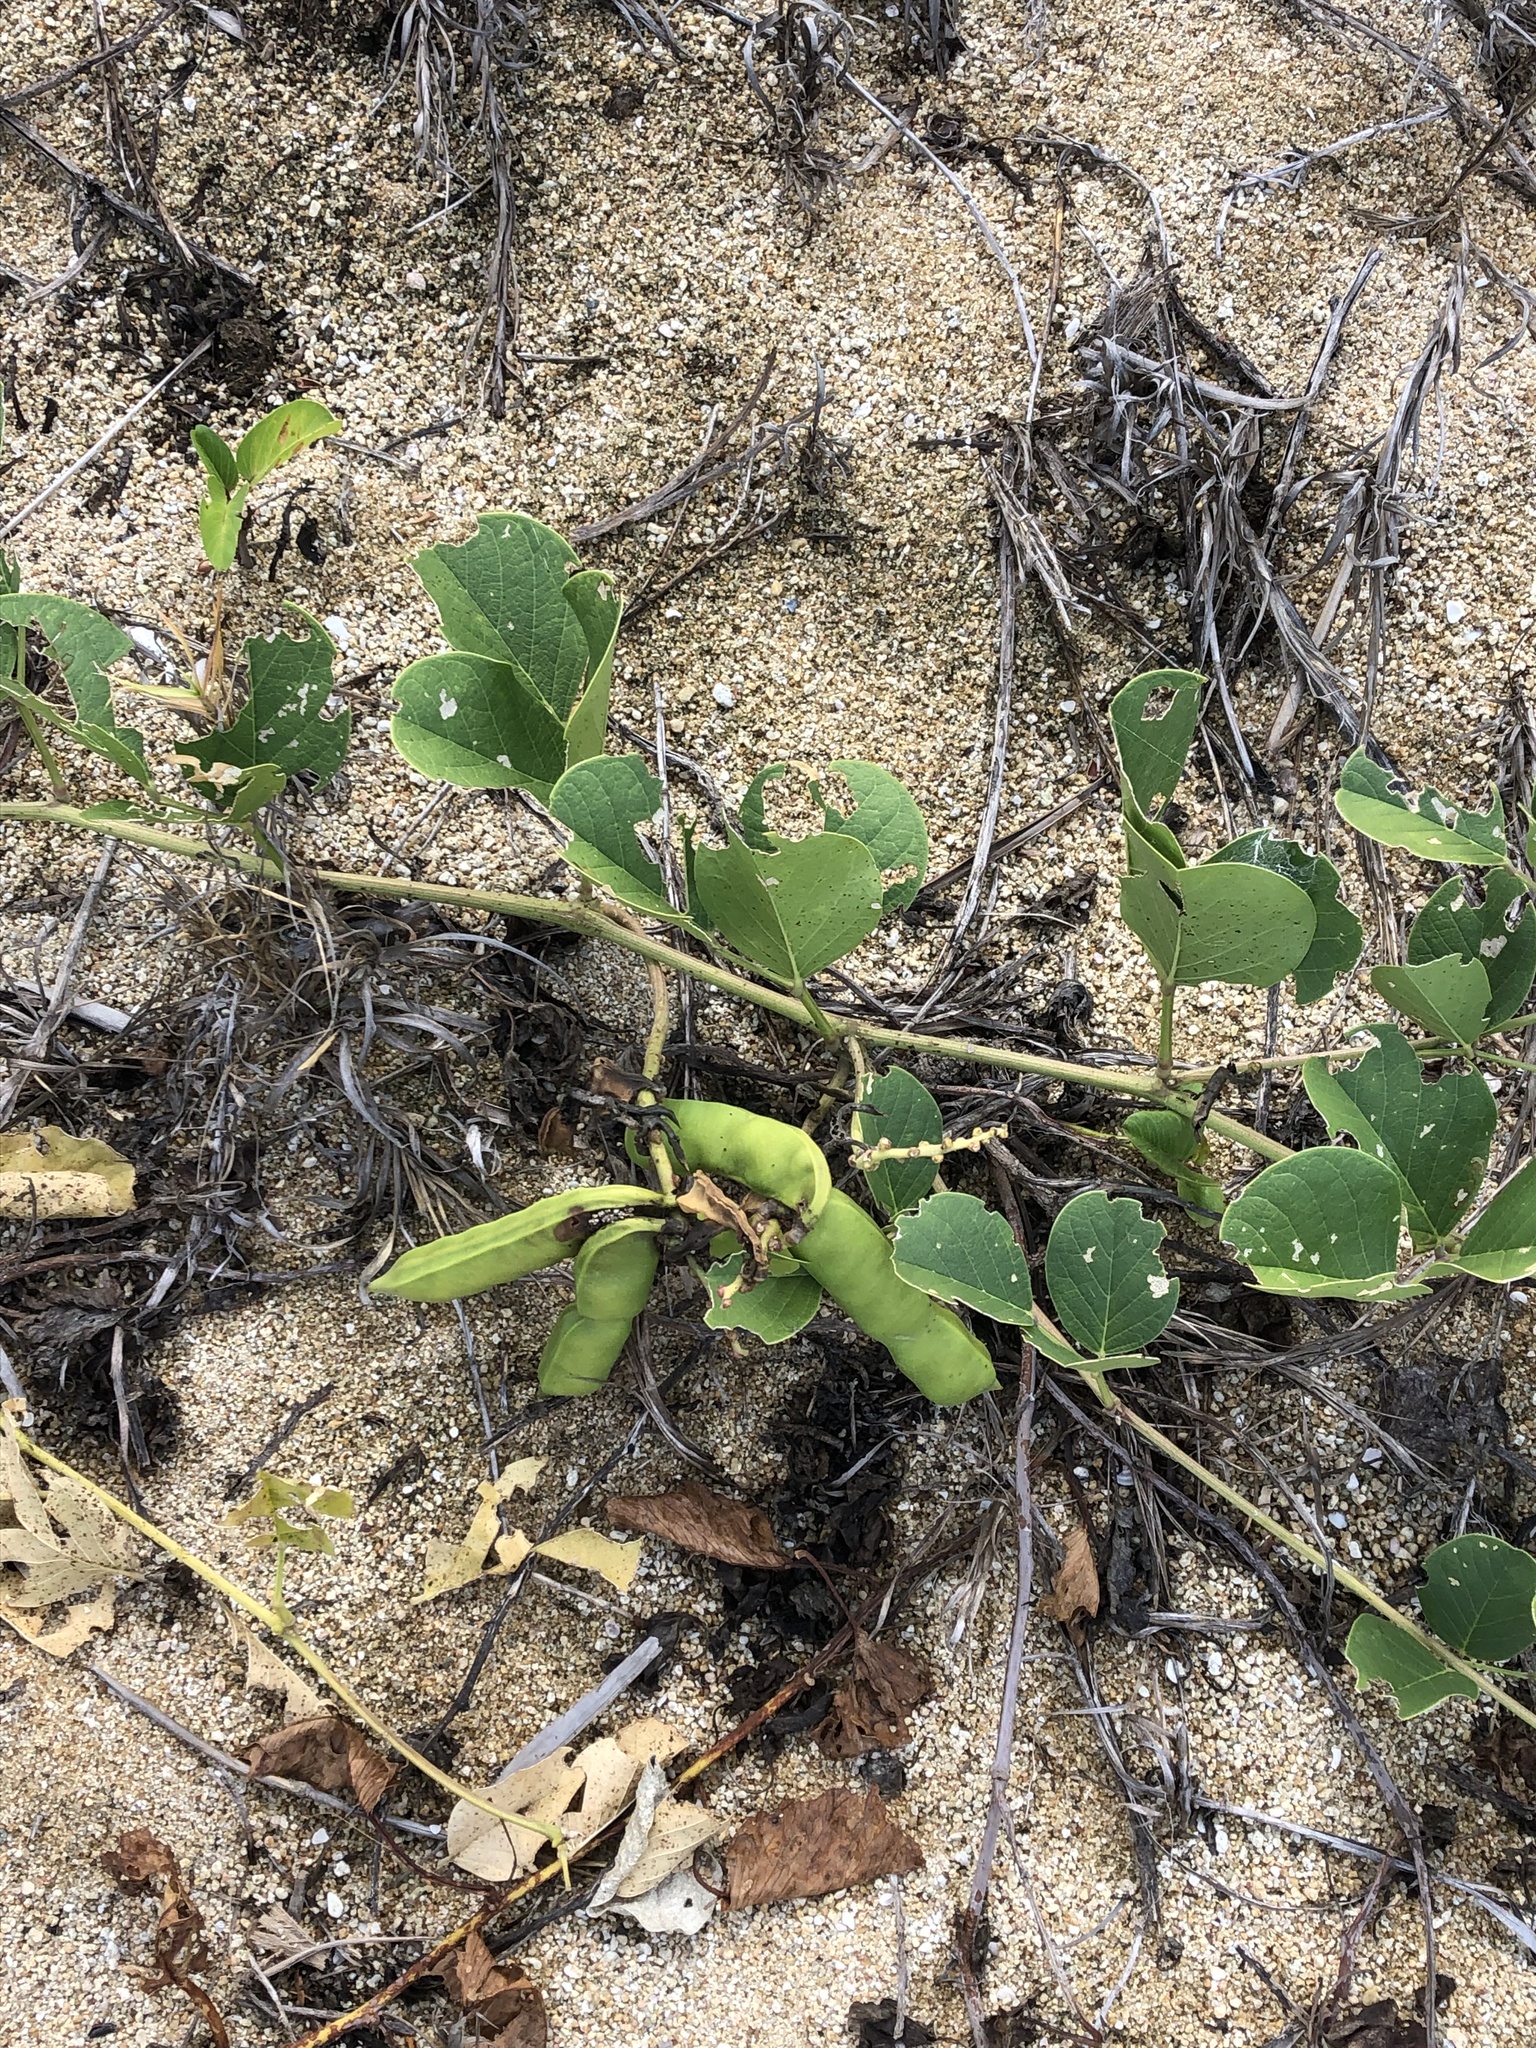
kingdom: Plantae
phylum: Tracheophyta
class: Magnoliopsida
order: Fabales
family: Fabaceae
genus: Canavalia
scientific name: Canavalia rosea
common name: Beach-bean
